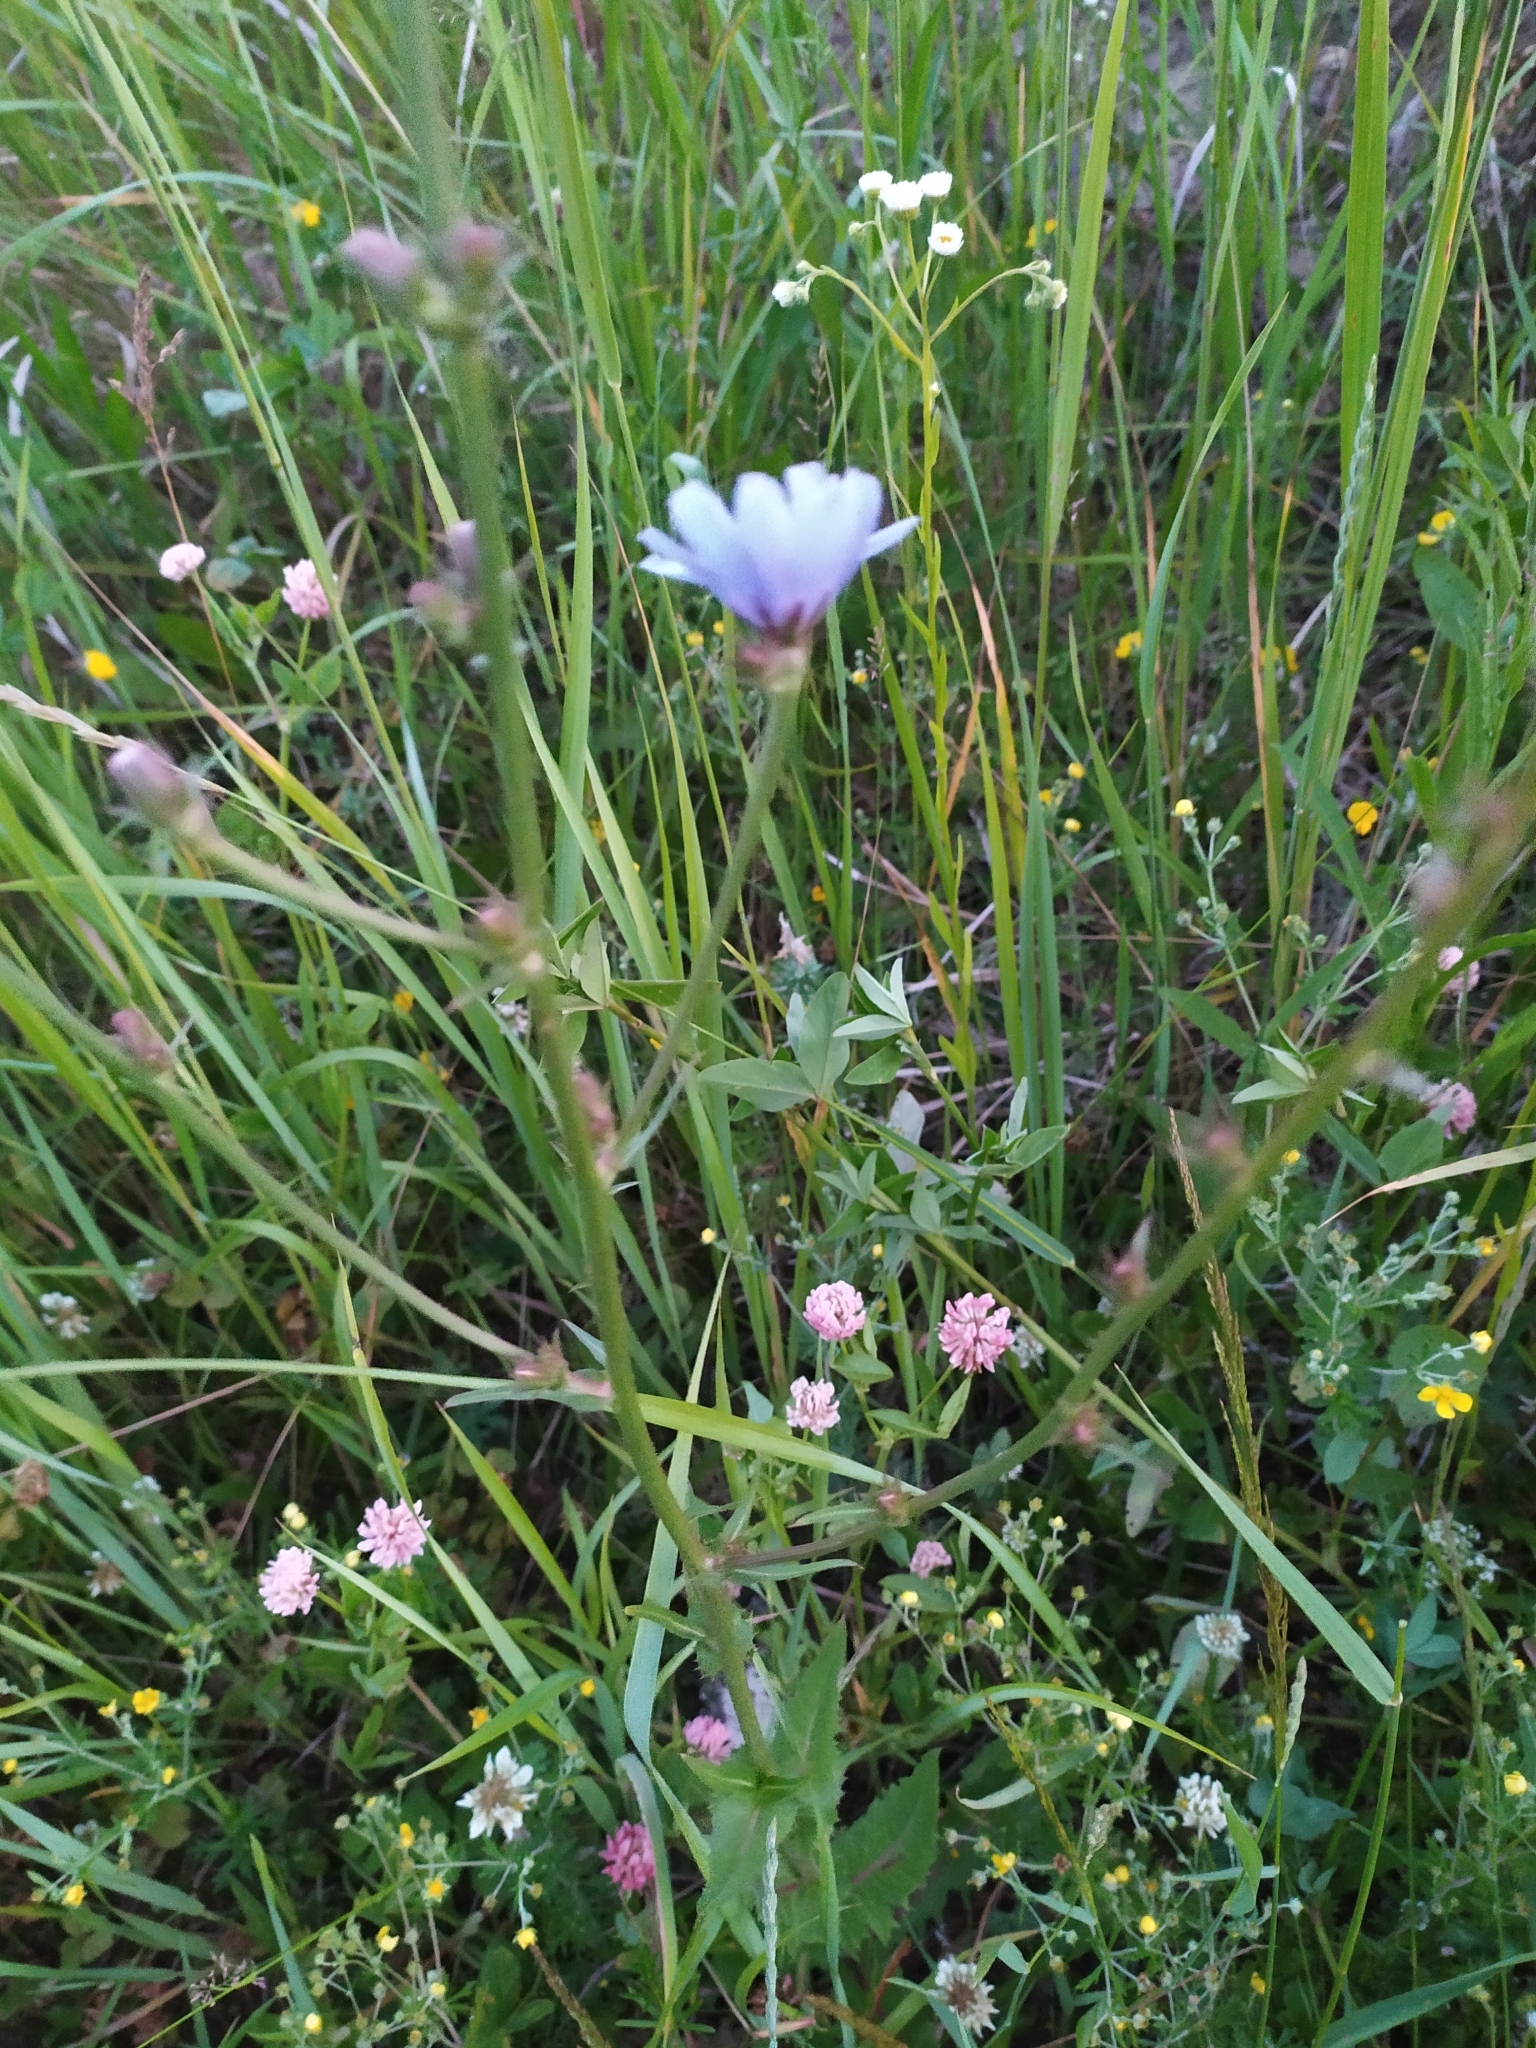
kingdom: Plantae
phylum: Tracheophyta
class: Magnoliopsida
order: Asterales
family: Asteraceae
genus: Cichorium
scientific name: Cichorium intybus
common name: Chicory
